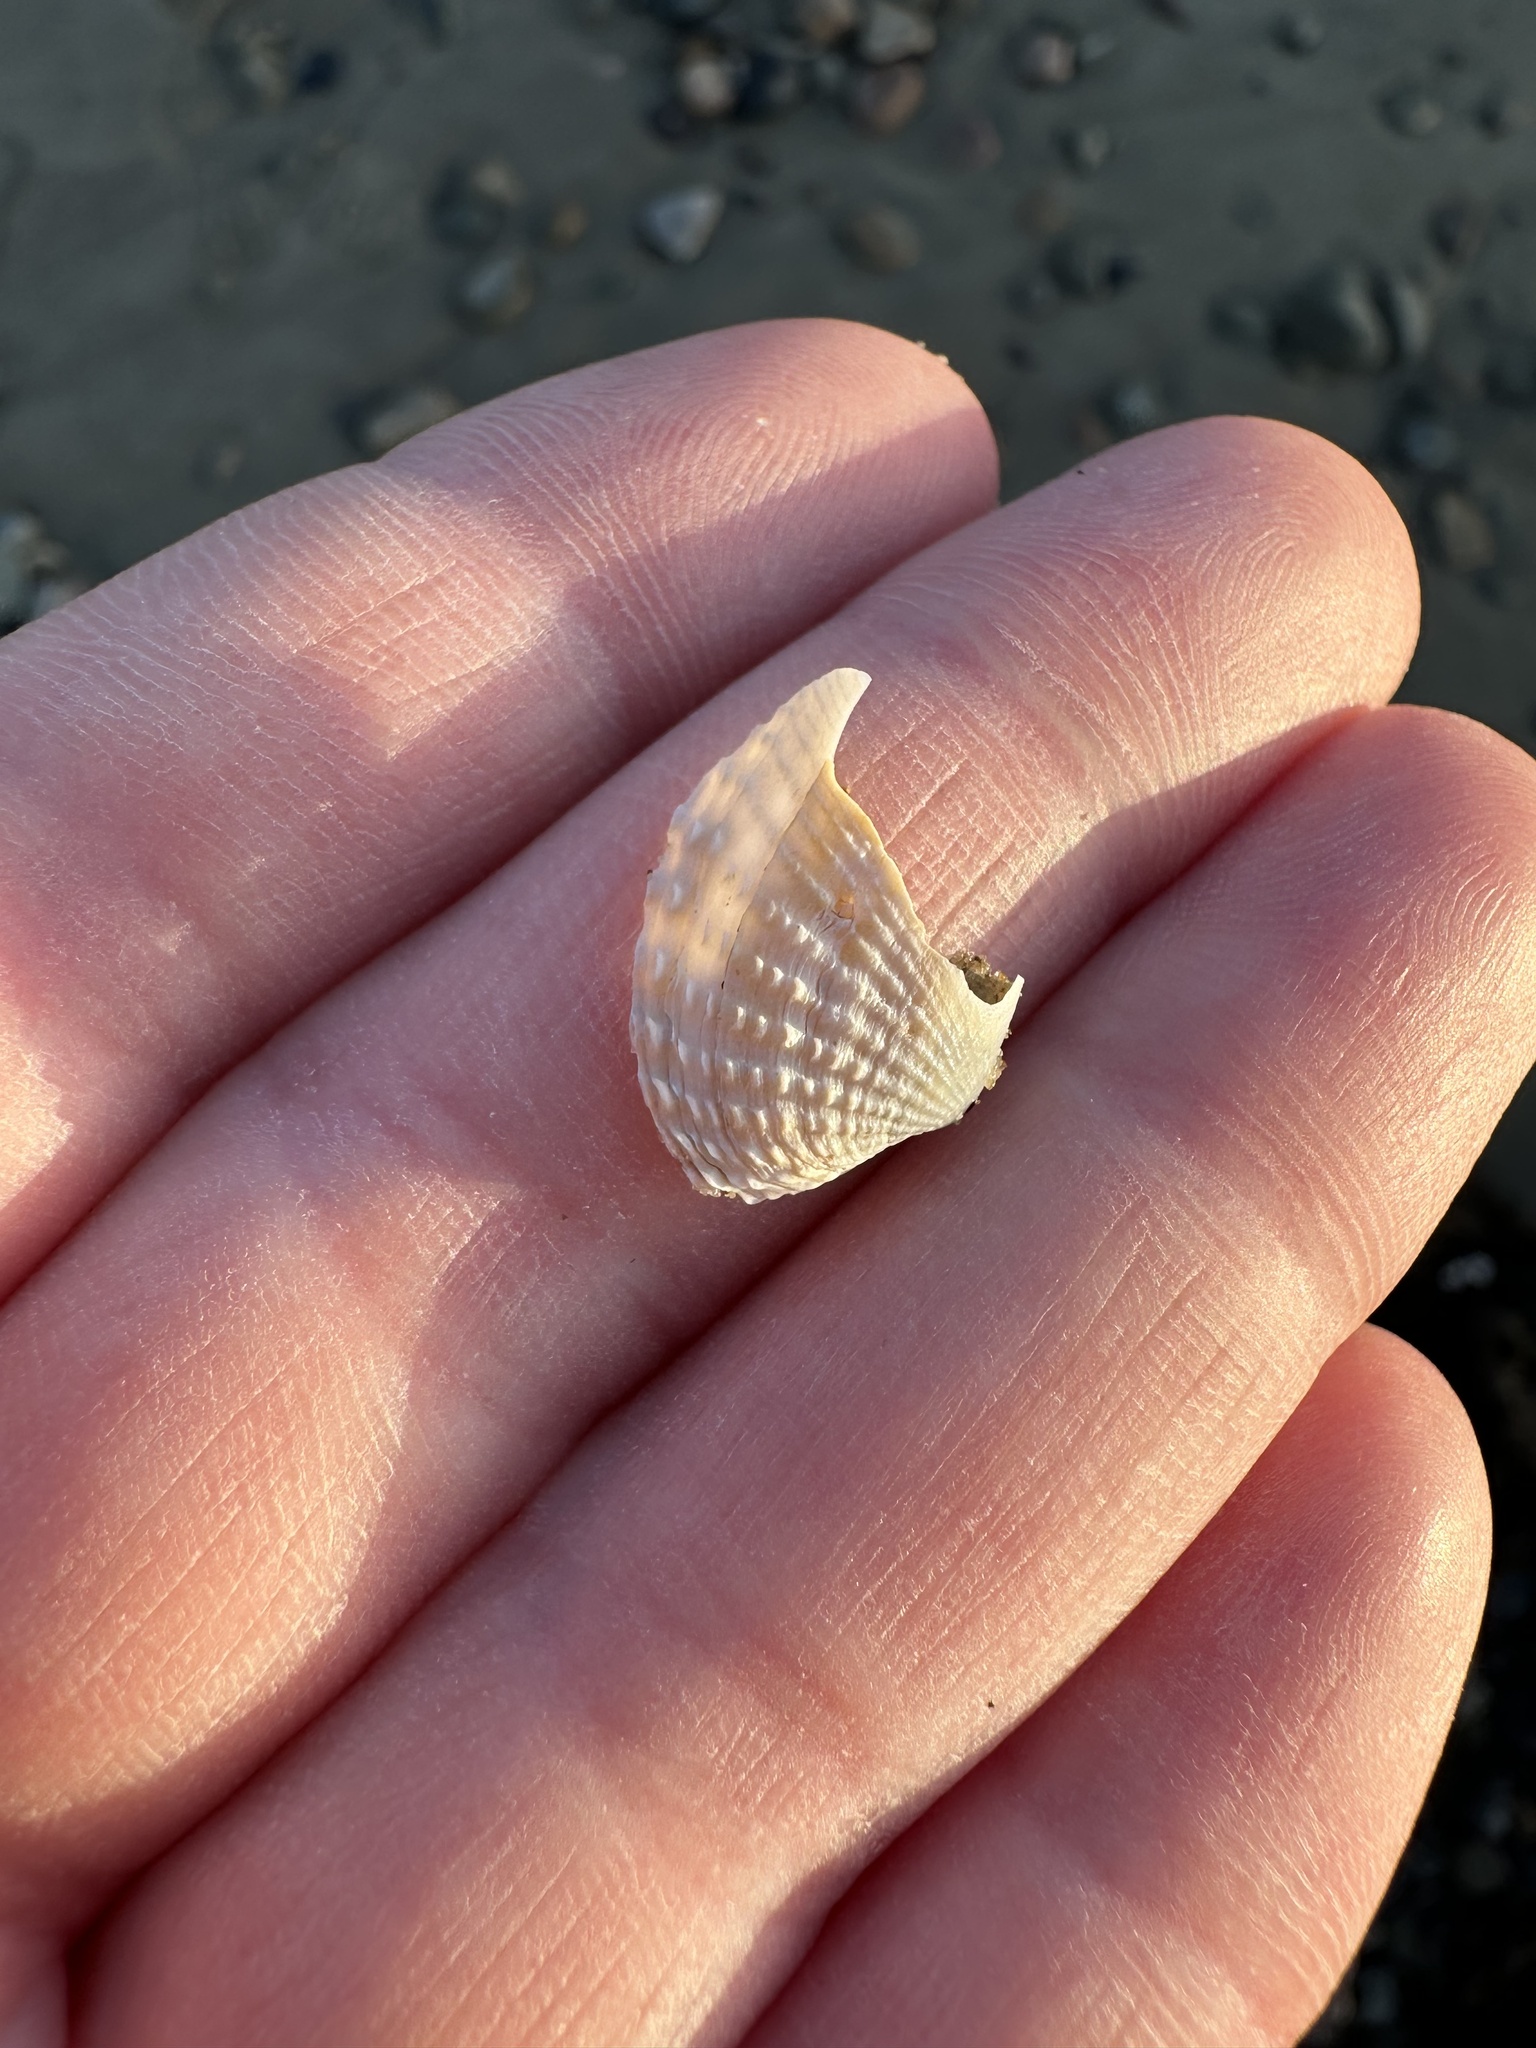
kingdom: Animalia
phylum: Mollusca
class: Bivalvia
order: Venerida
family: Veneridae
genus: Petricolaria
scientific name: Petricolaria pholadiformis
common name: American piddock
